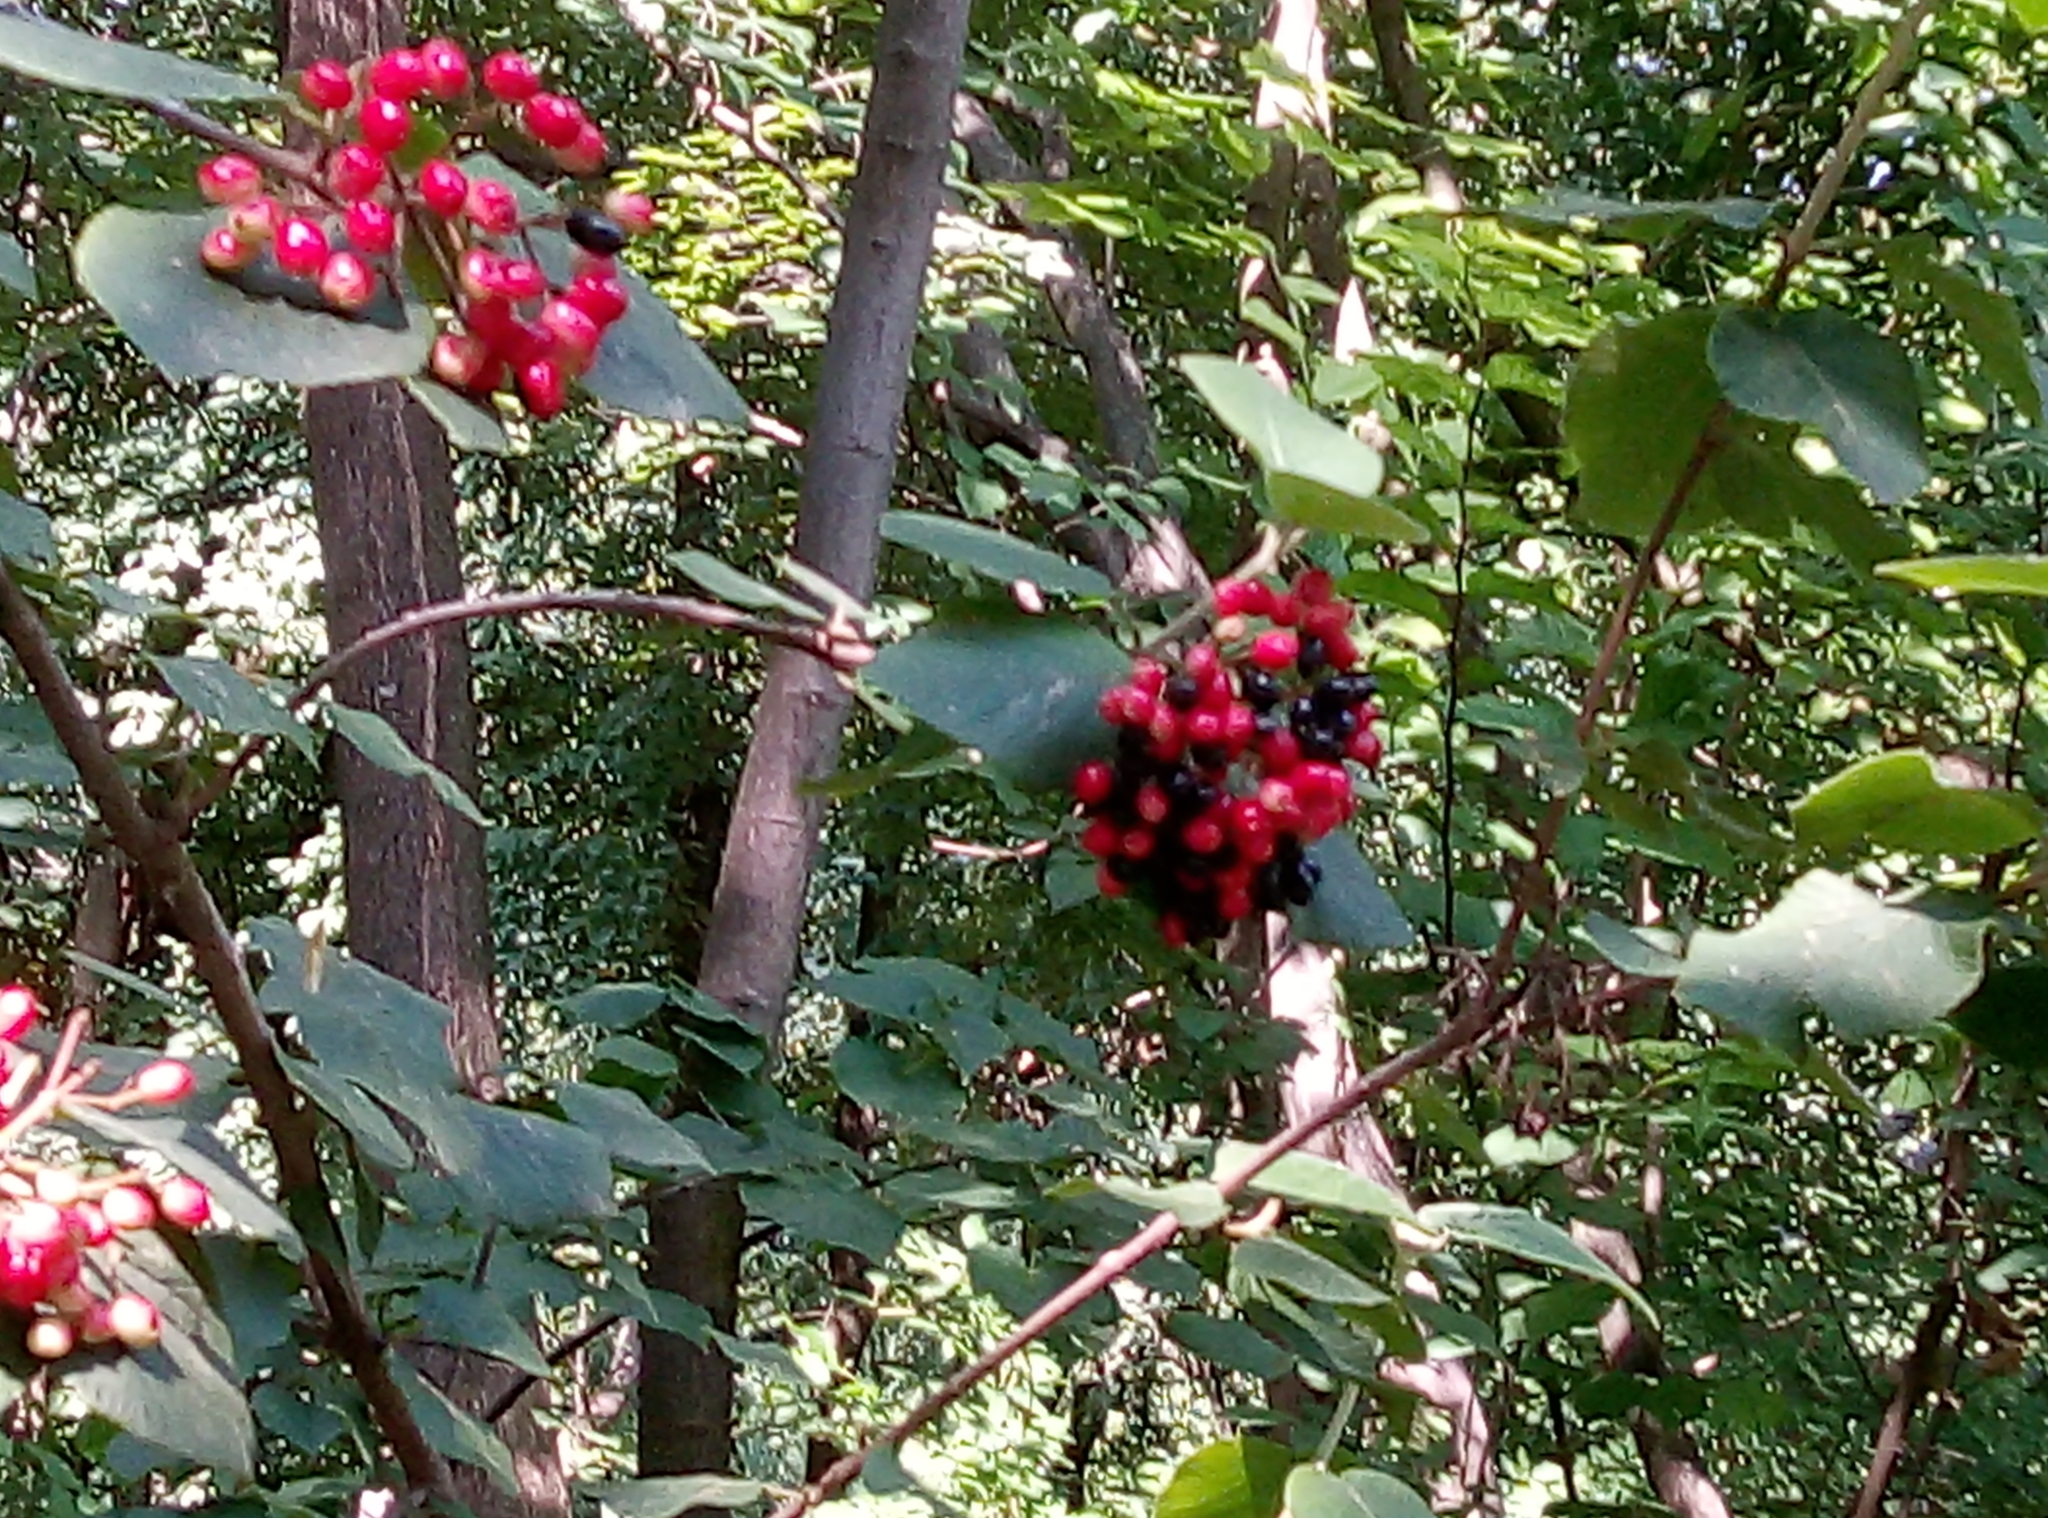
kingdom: Plantae
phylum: Tracheophyta
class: Magnoliopsida
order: Dipsacales
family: Viburnaceae
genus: Viburnum
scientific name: Viburnum lantana
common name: Wayfaring tree
